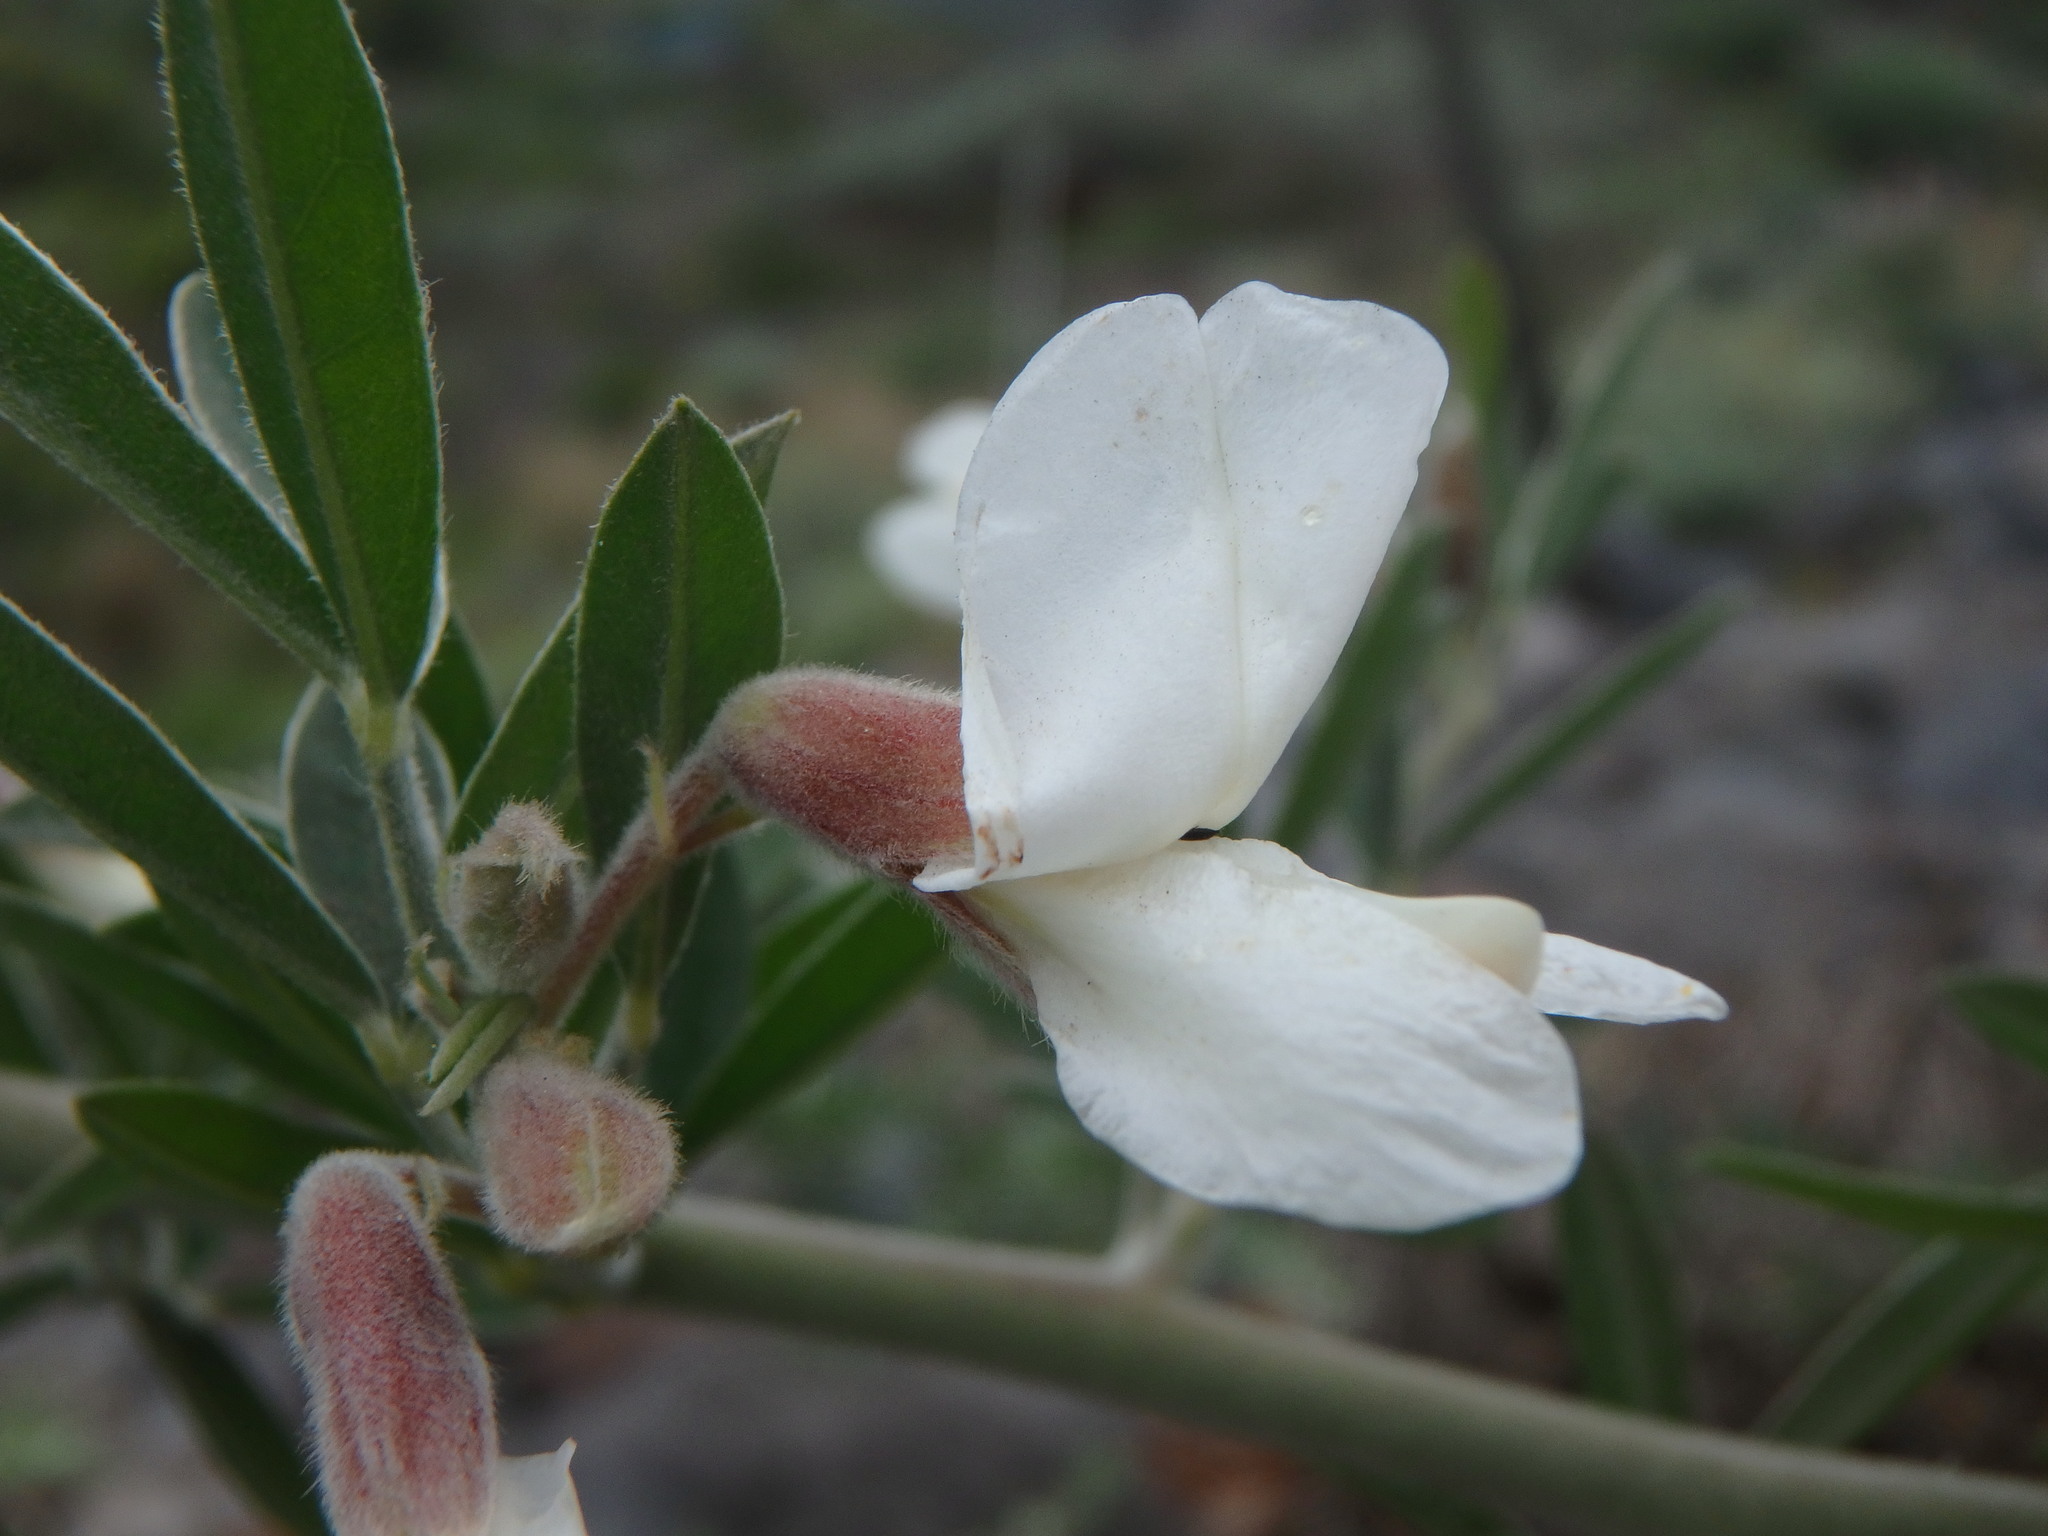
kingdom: Plantae
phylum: Tracheophyta
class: Magnoliopsida
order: Fabales
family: Fabaceae
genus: Chamaecytisus
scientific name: Chamaecytisus prolifer
